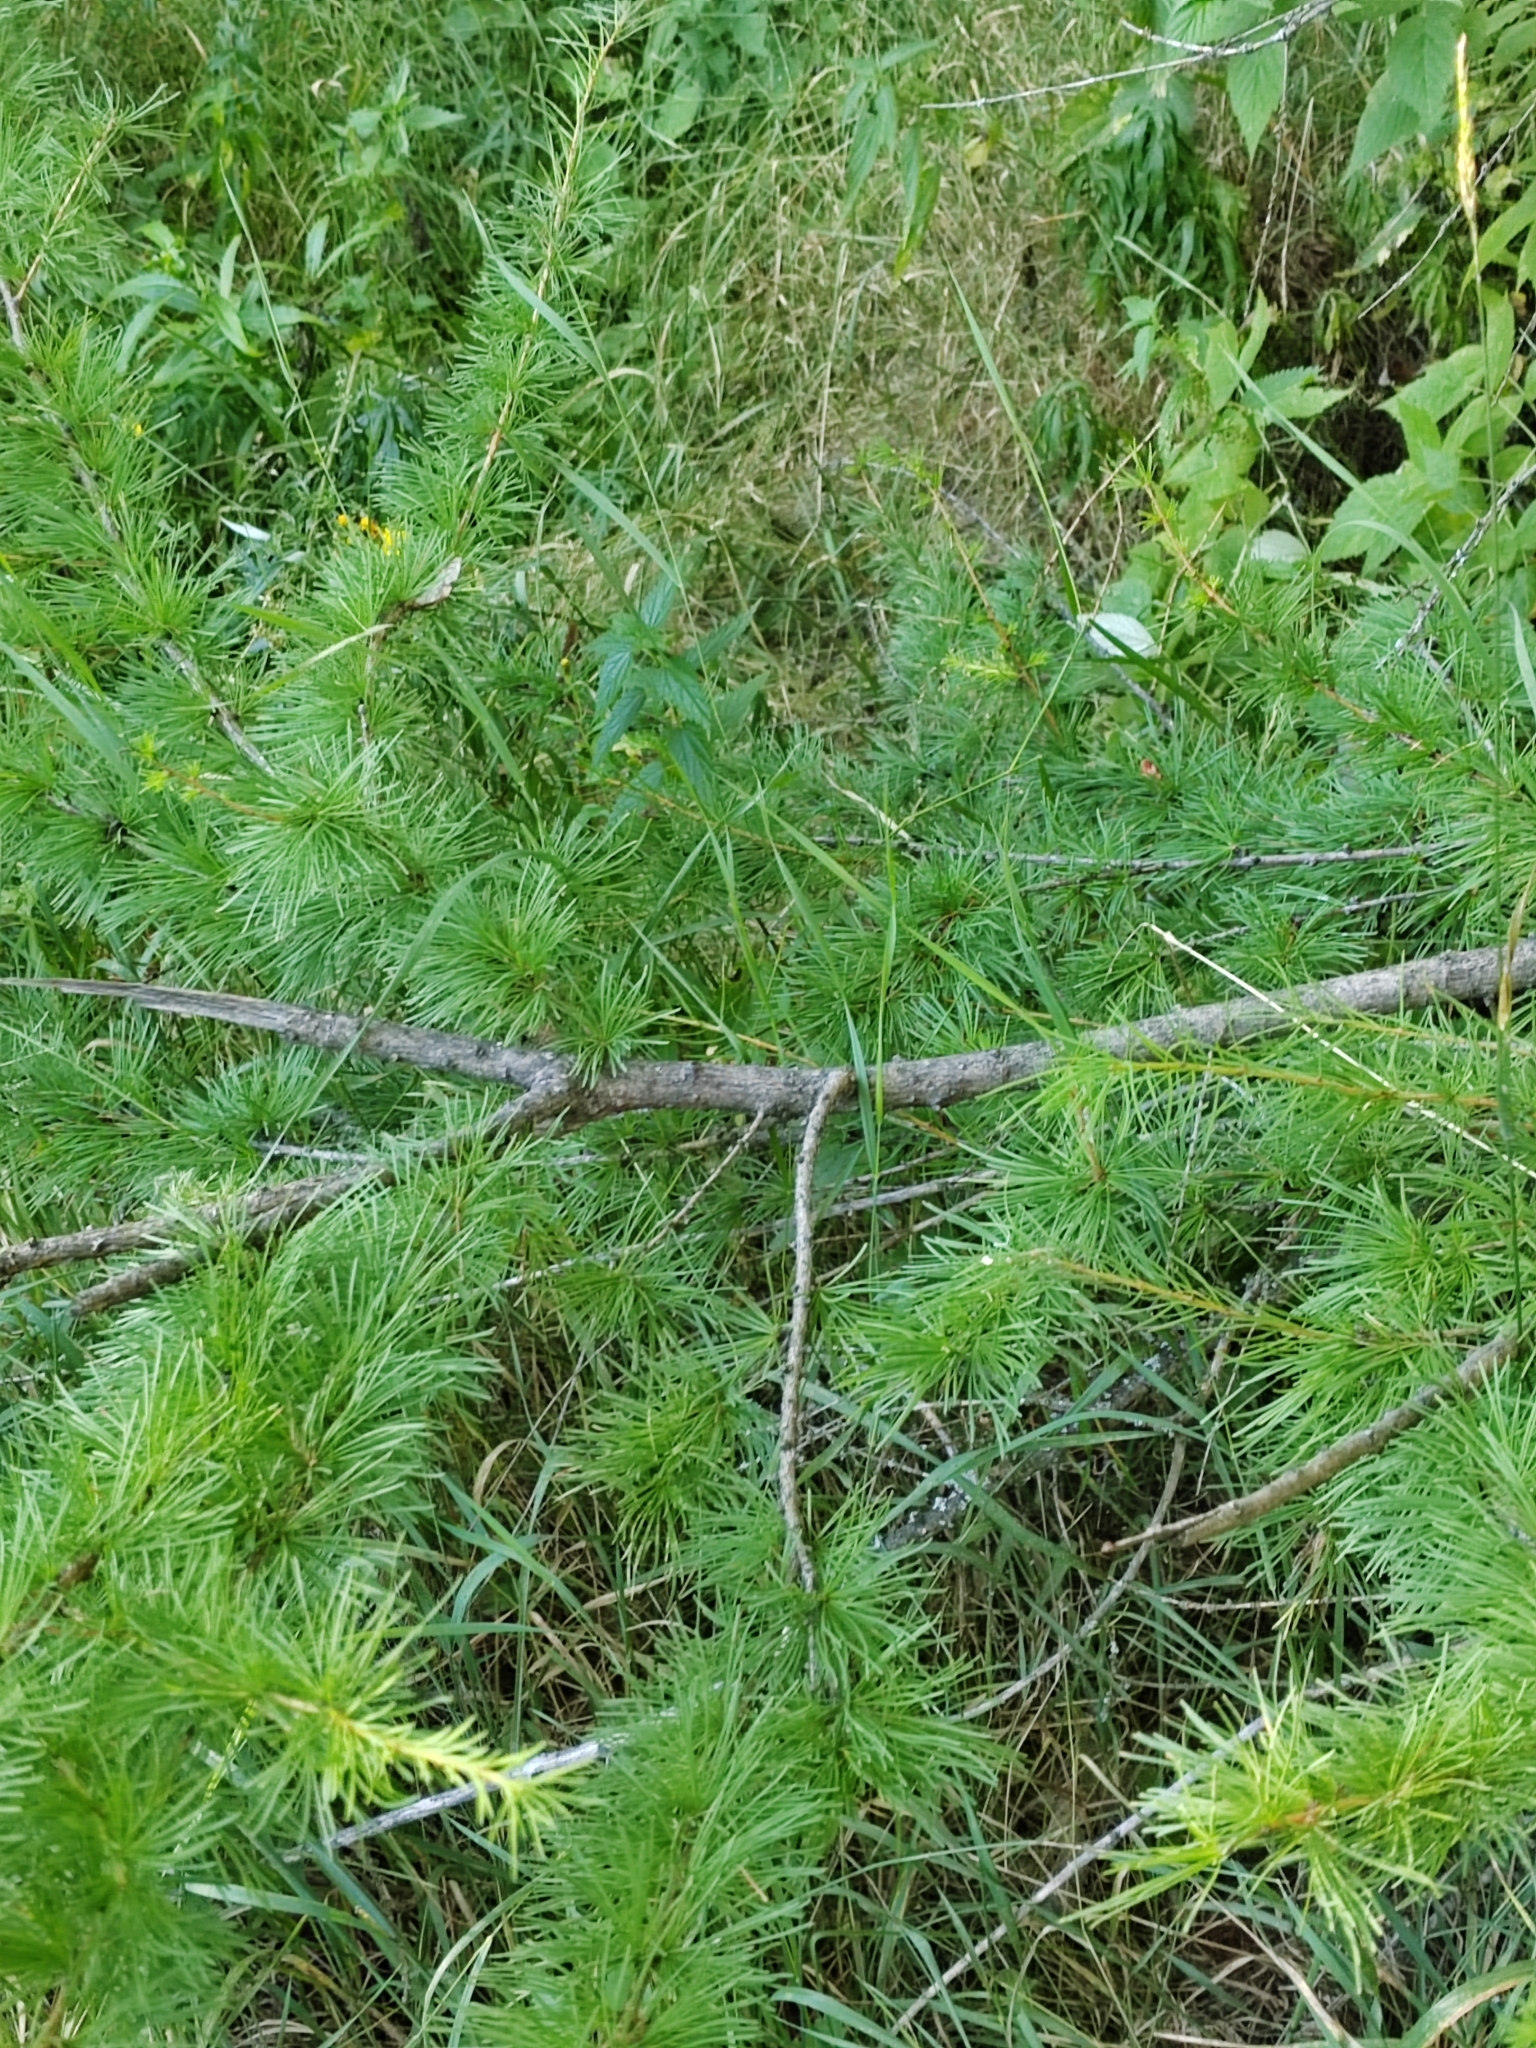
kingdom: Plantae
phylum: Tracheophyta
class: Pinopsida
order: Pinales
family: Pinaceae
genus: Larix
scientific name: Larix sibirica
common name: Siberian larch
